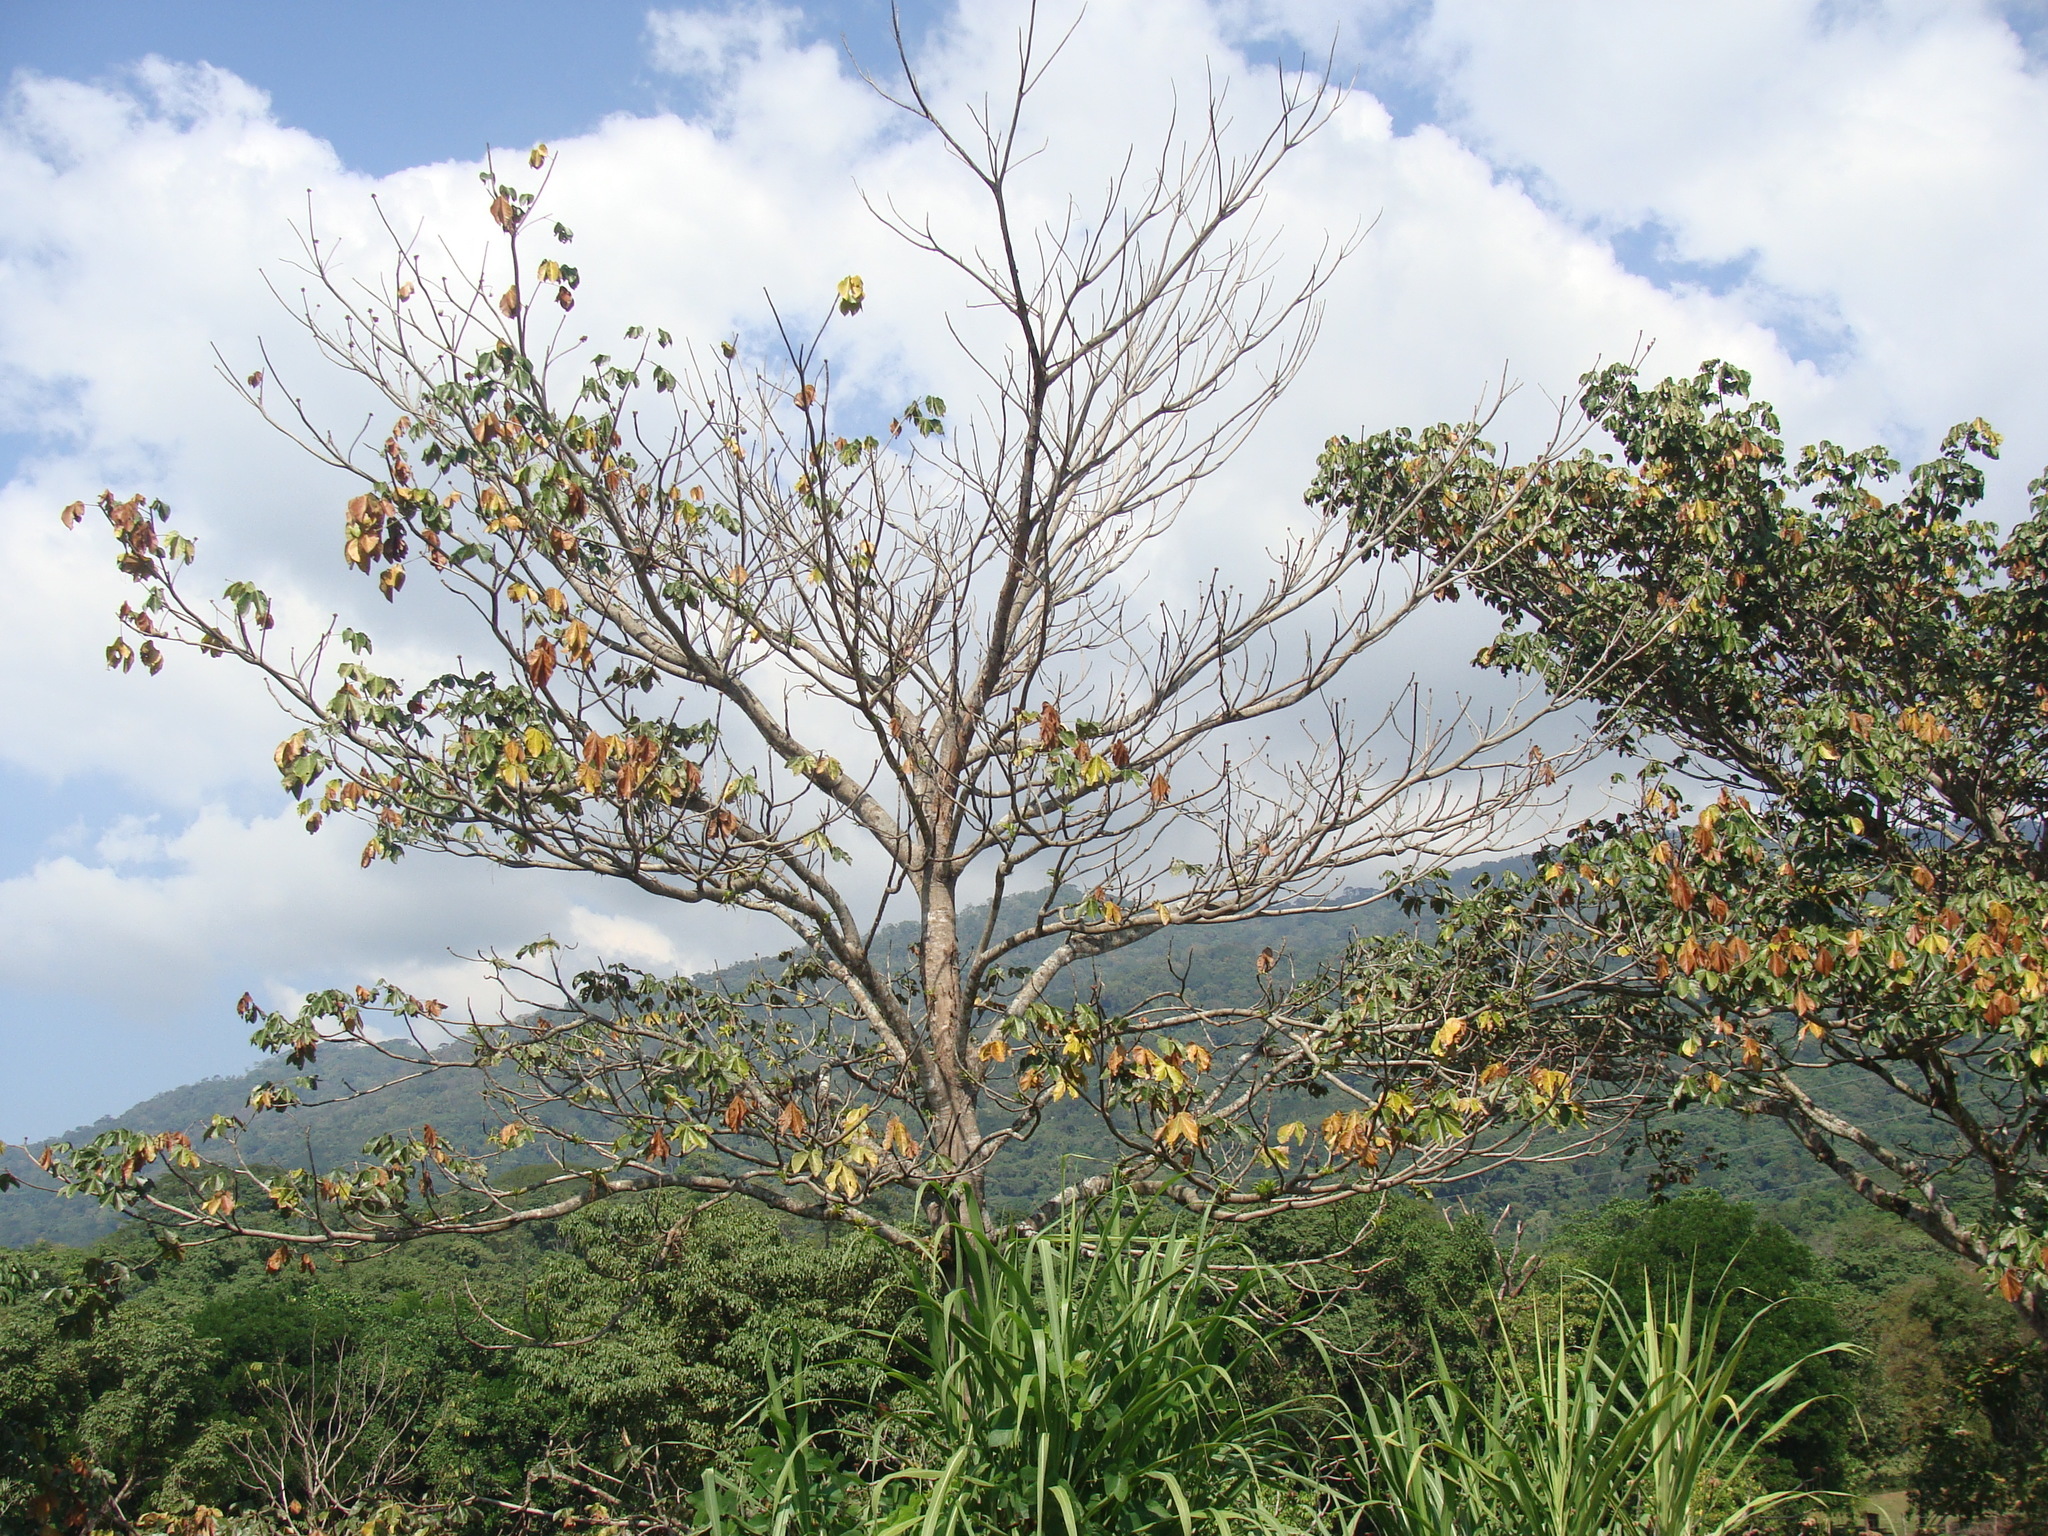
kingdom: Plantae
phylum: Tracheophyta
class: Magnoliopsida
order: Malvales
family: Malvaceae
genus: Sterculia
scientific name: Sterculia apetala
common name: Panama tree
